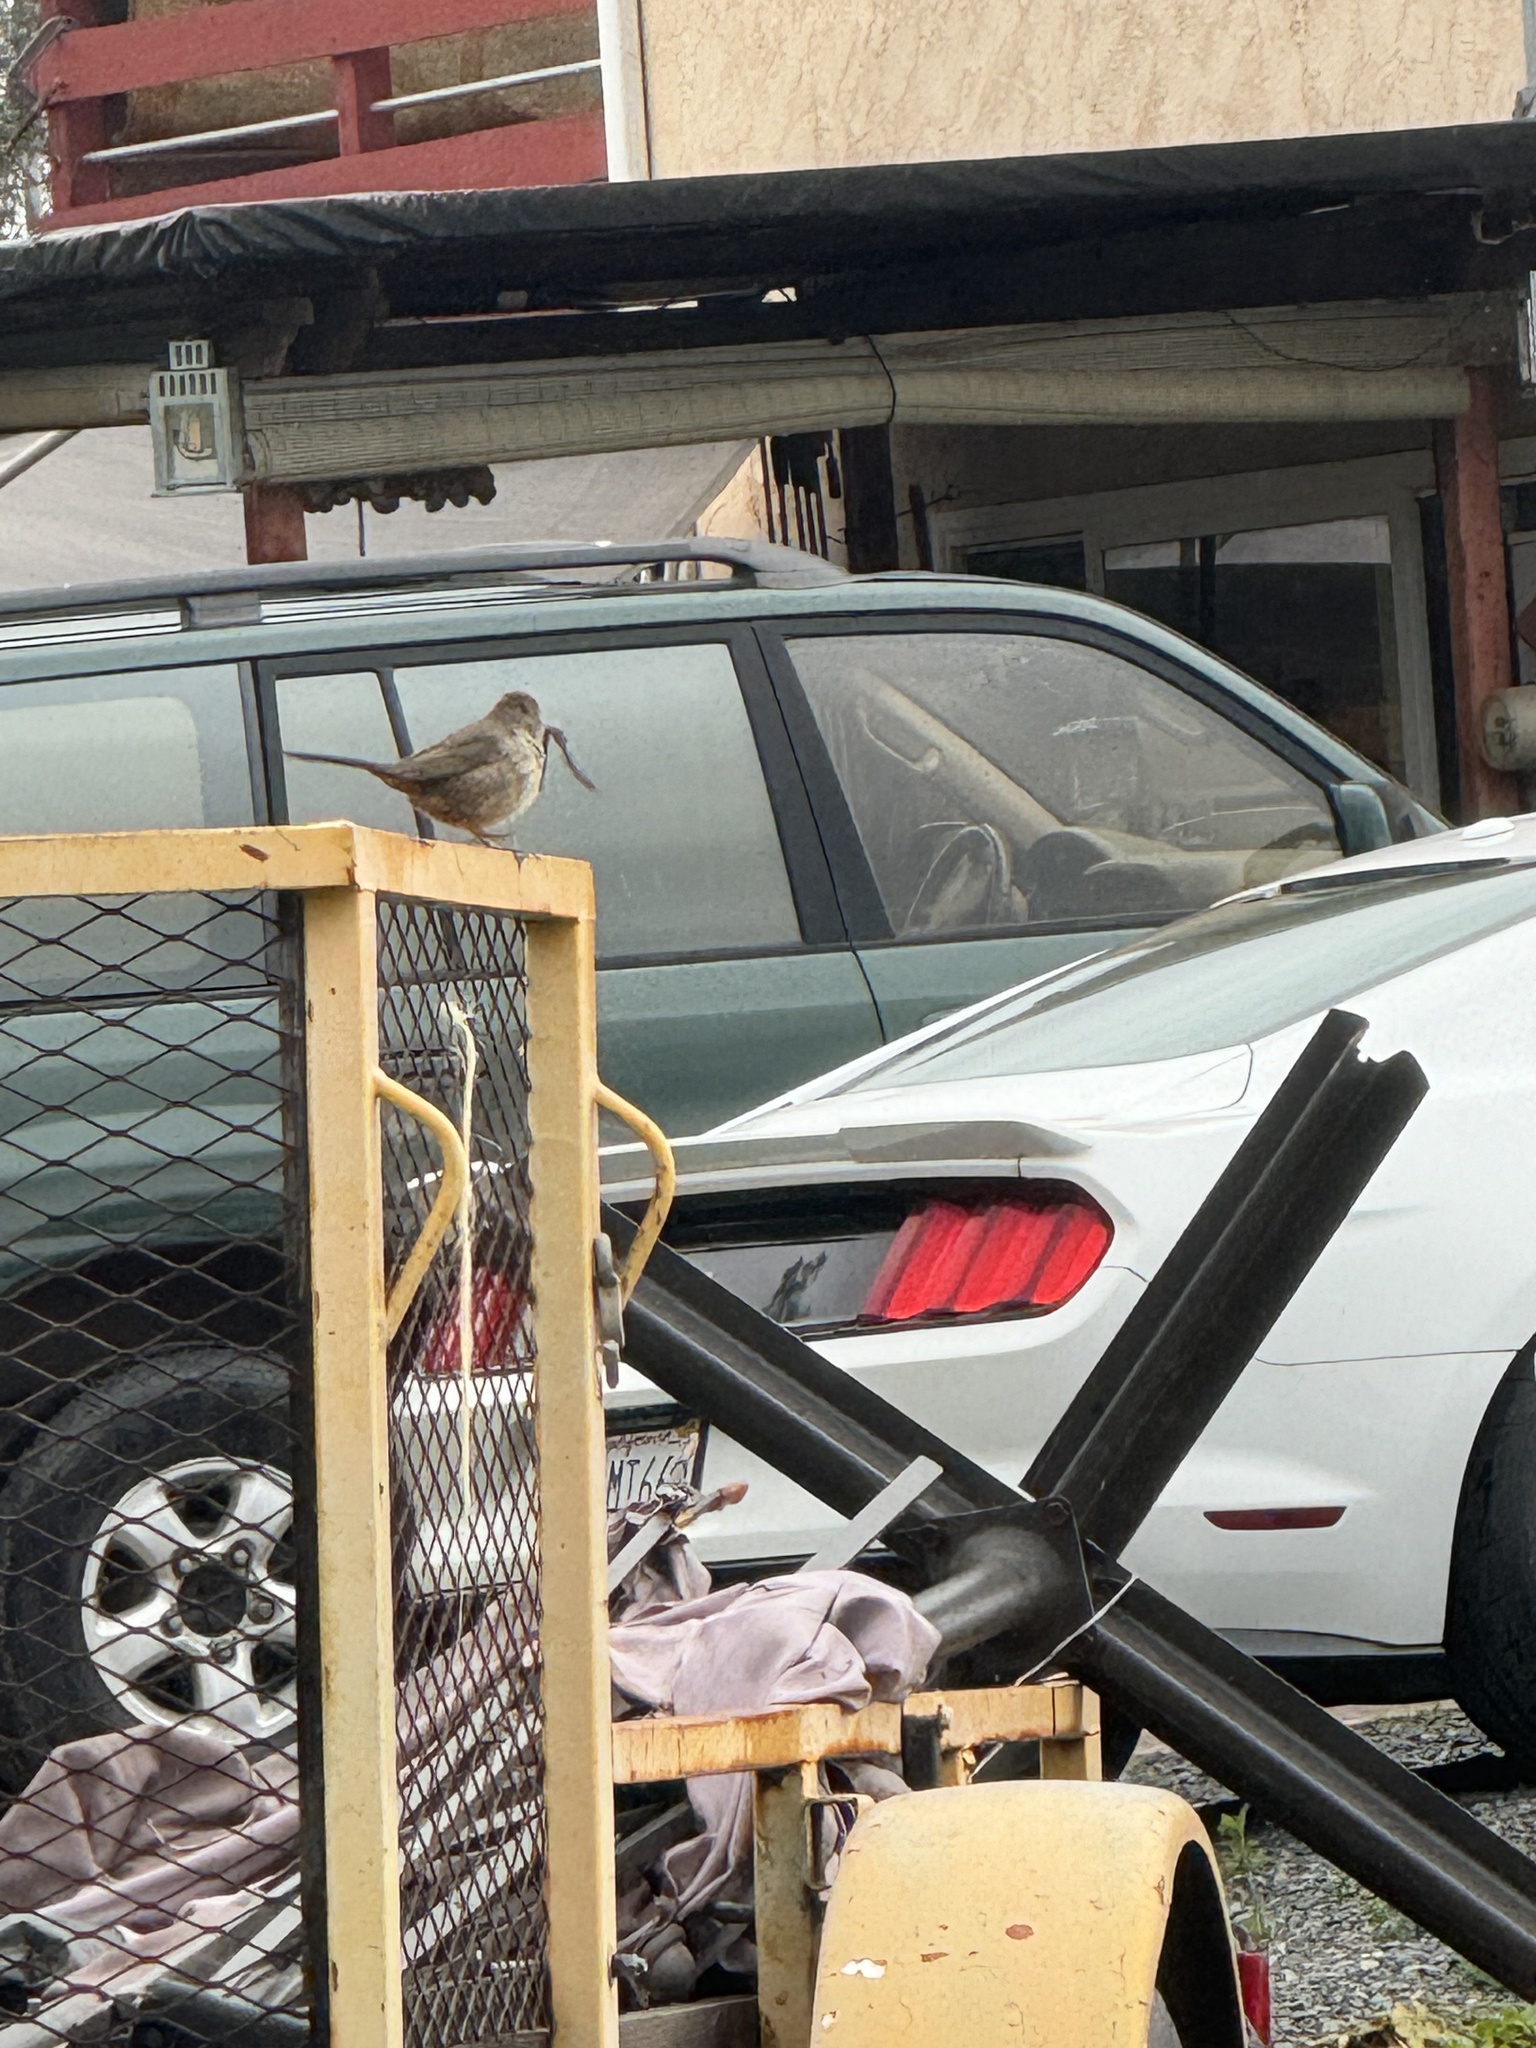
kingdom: Animalia
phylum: Chordata
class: Aves
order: Passeriformes
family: Passerellidae
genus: Melozone
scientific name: Melozone crissalis
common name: California towhee
